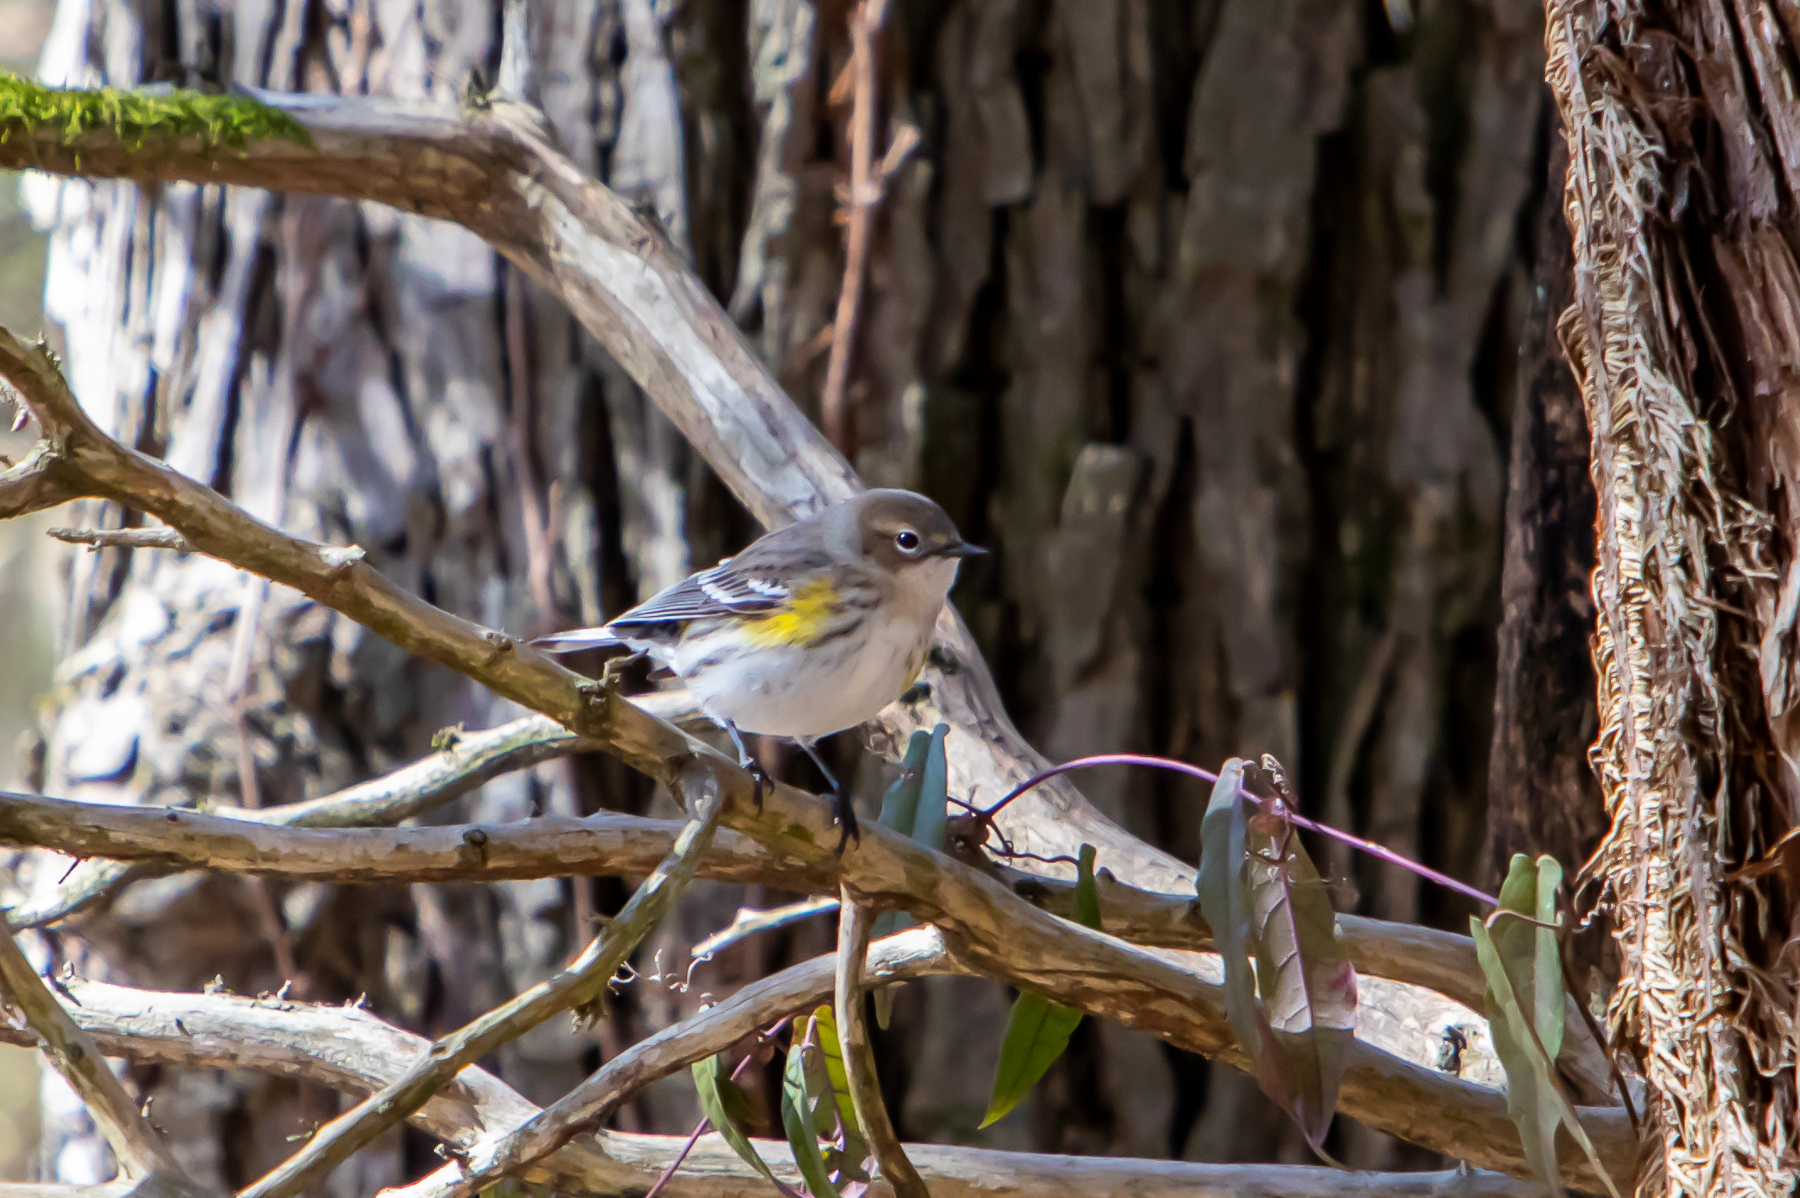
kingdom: Animalia
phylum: Chordata
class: Aves
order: Passeriformes
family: Parulidae
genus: Setophaga
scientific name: Setophaga coronata
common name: Myrtle warbler
